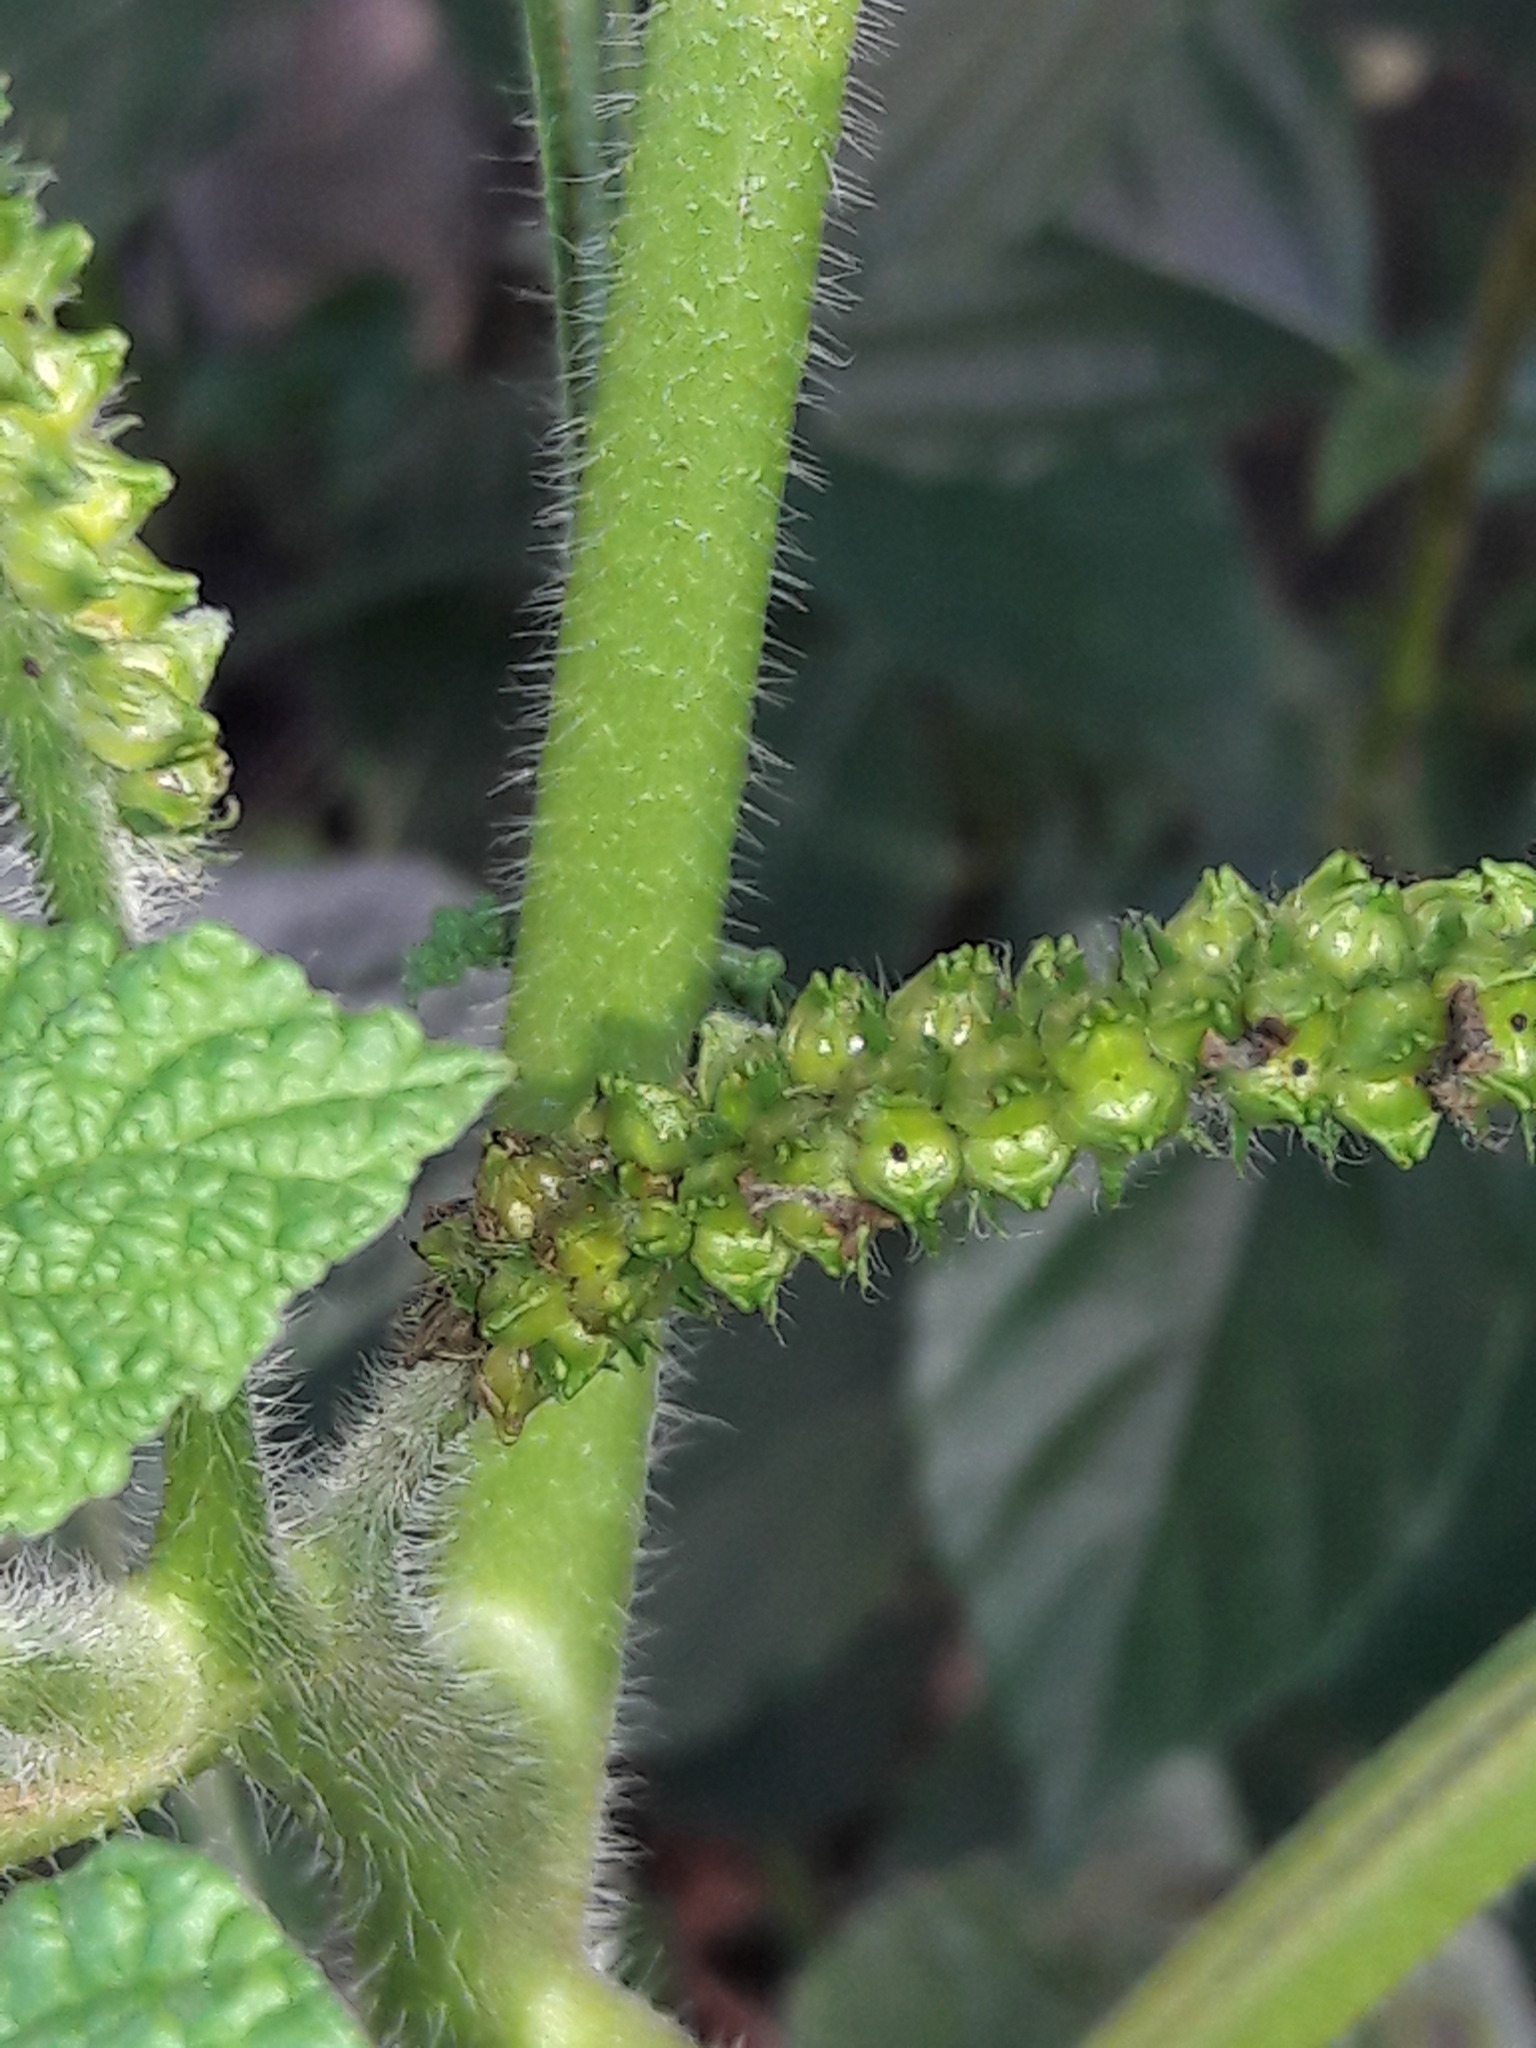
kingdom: Plantae
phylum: Tracheophyta
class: Magnoliopsida
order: Boraginales
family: Heliotropiaceae
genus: Heliotropium
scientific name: Heliotropium indicum
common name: Indian heliotrope
